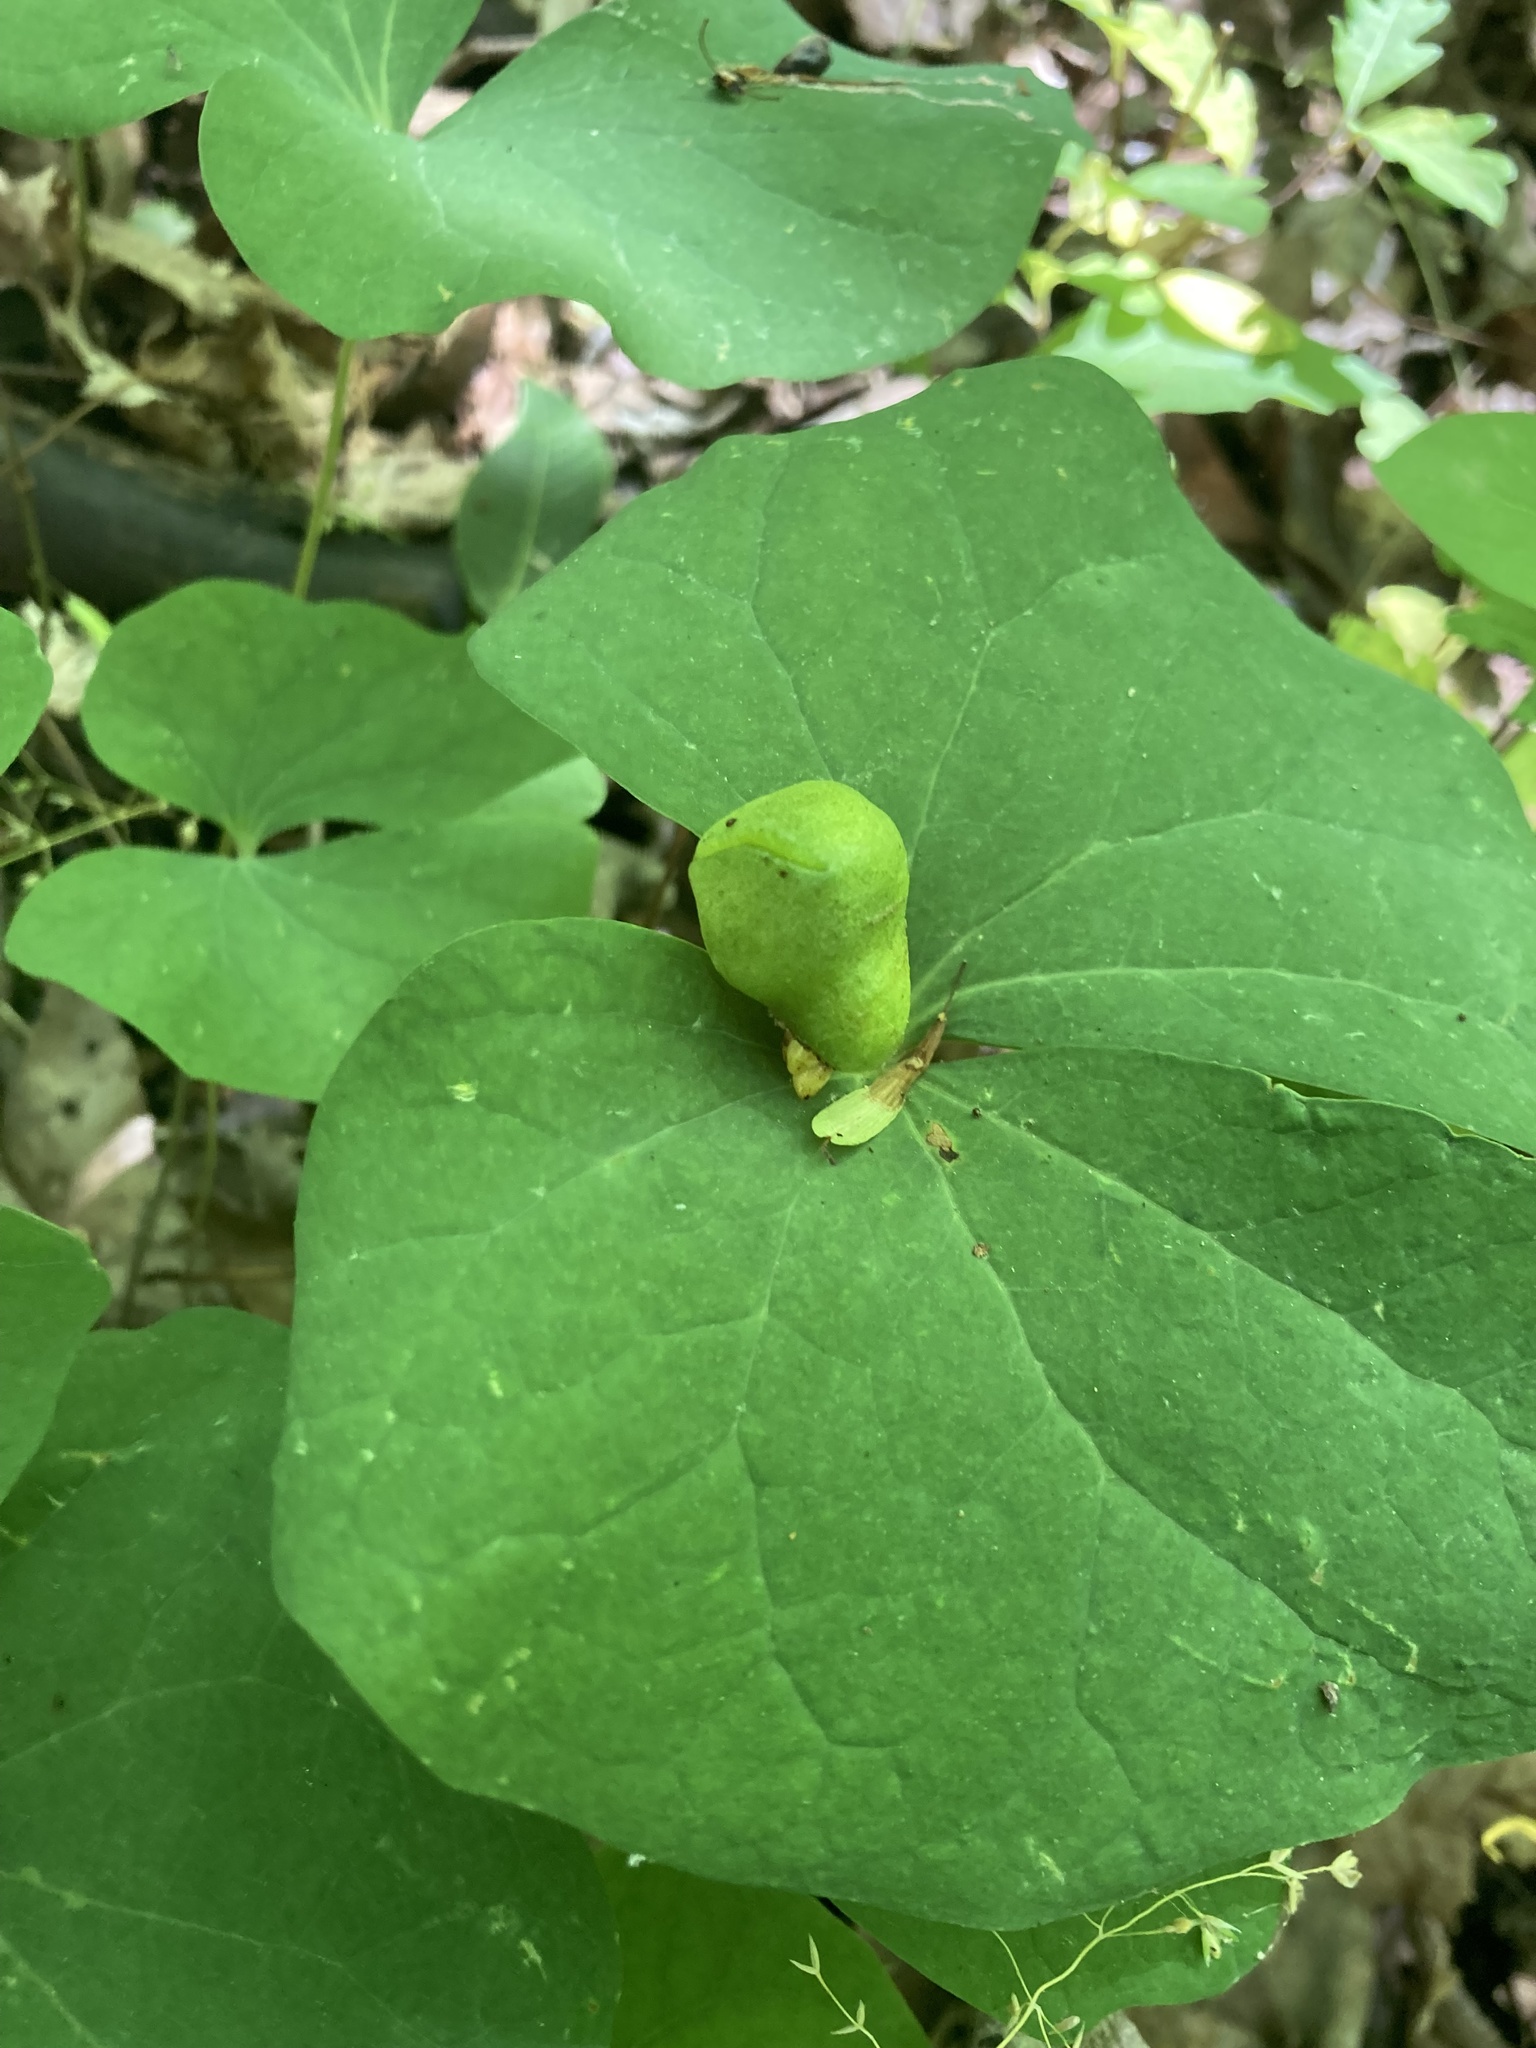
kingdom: Plantae
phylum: Tracheophyta
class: Magnoliopsida
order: Ranunculales
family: Berberidaceae
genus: Jeffersonia
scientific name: Jeffersonia diphylla
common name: Rheumatism-root
